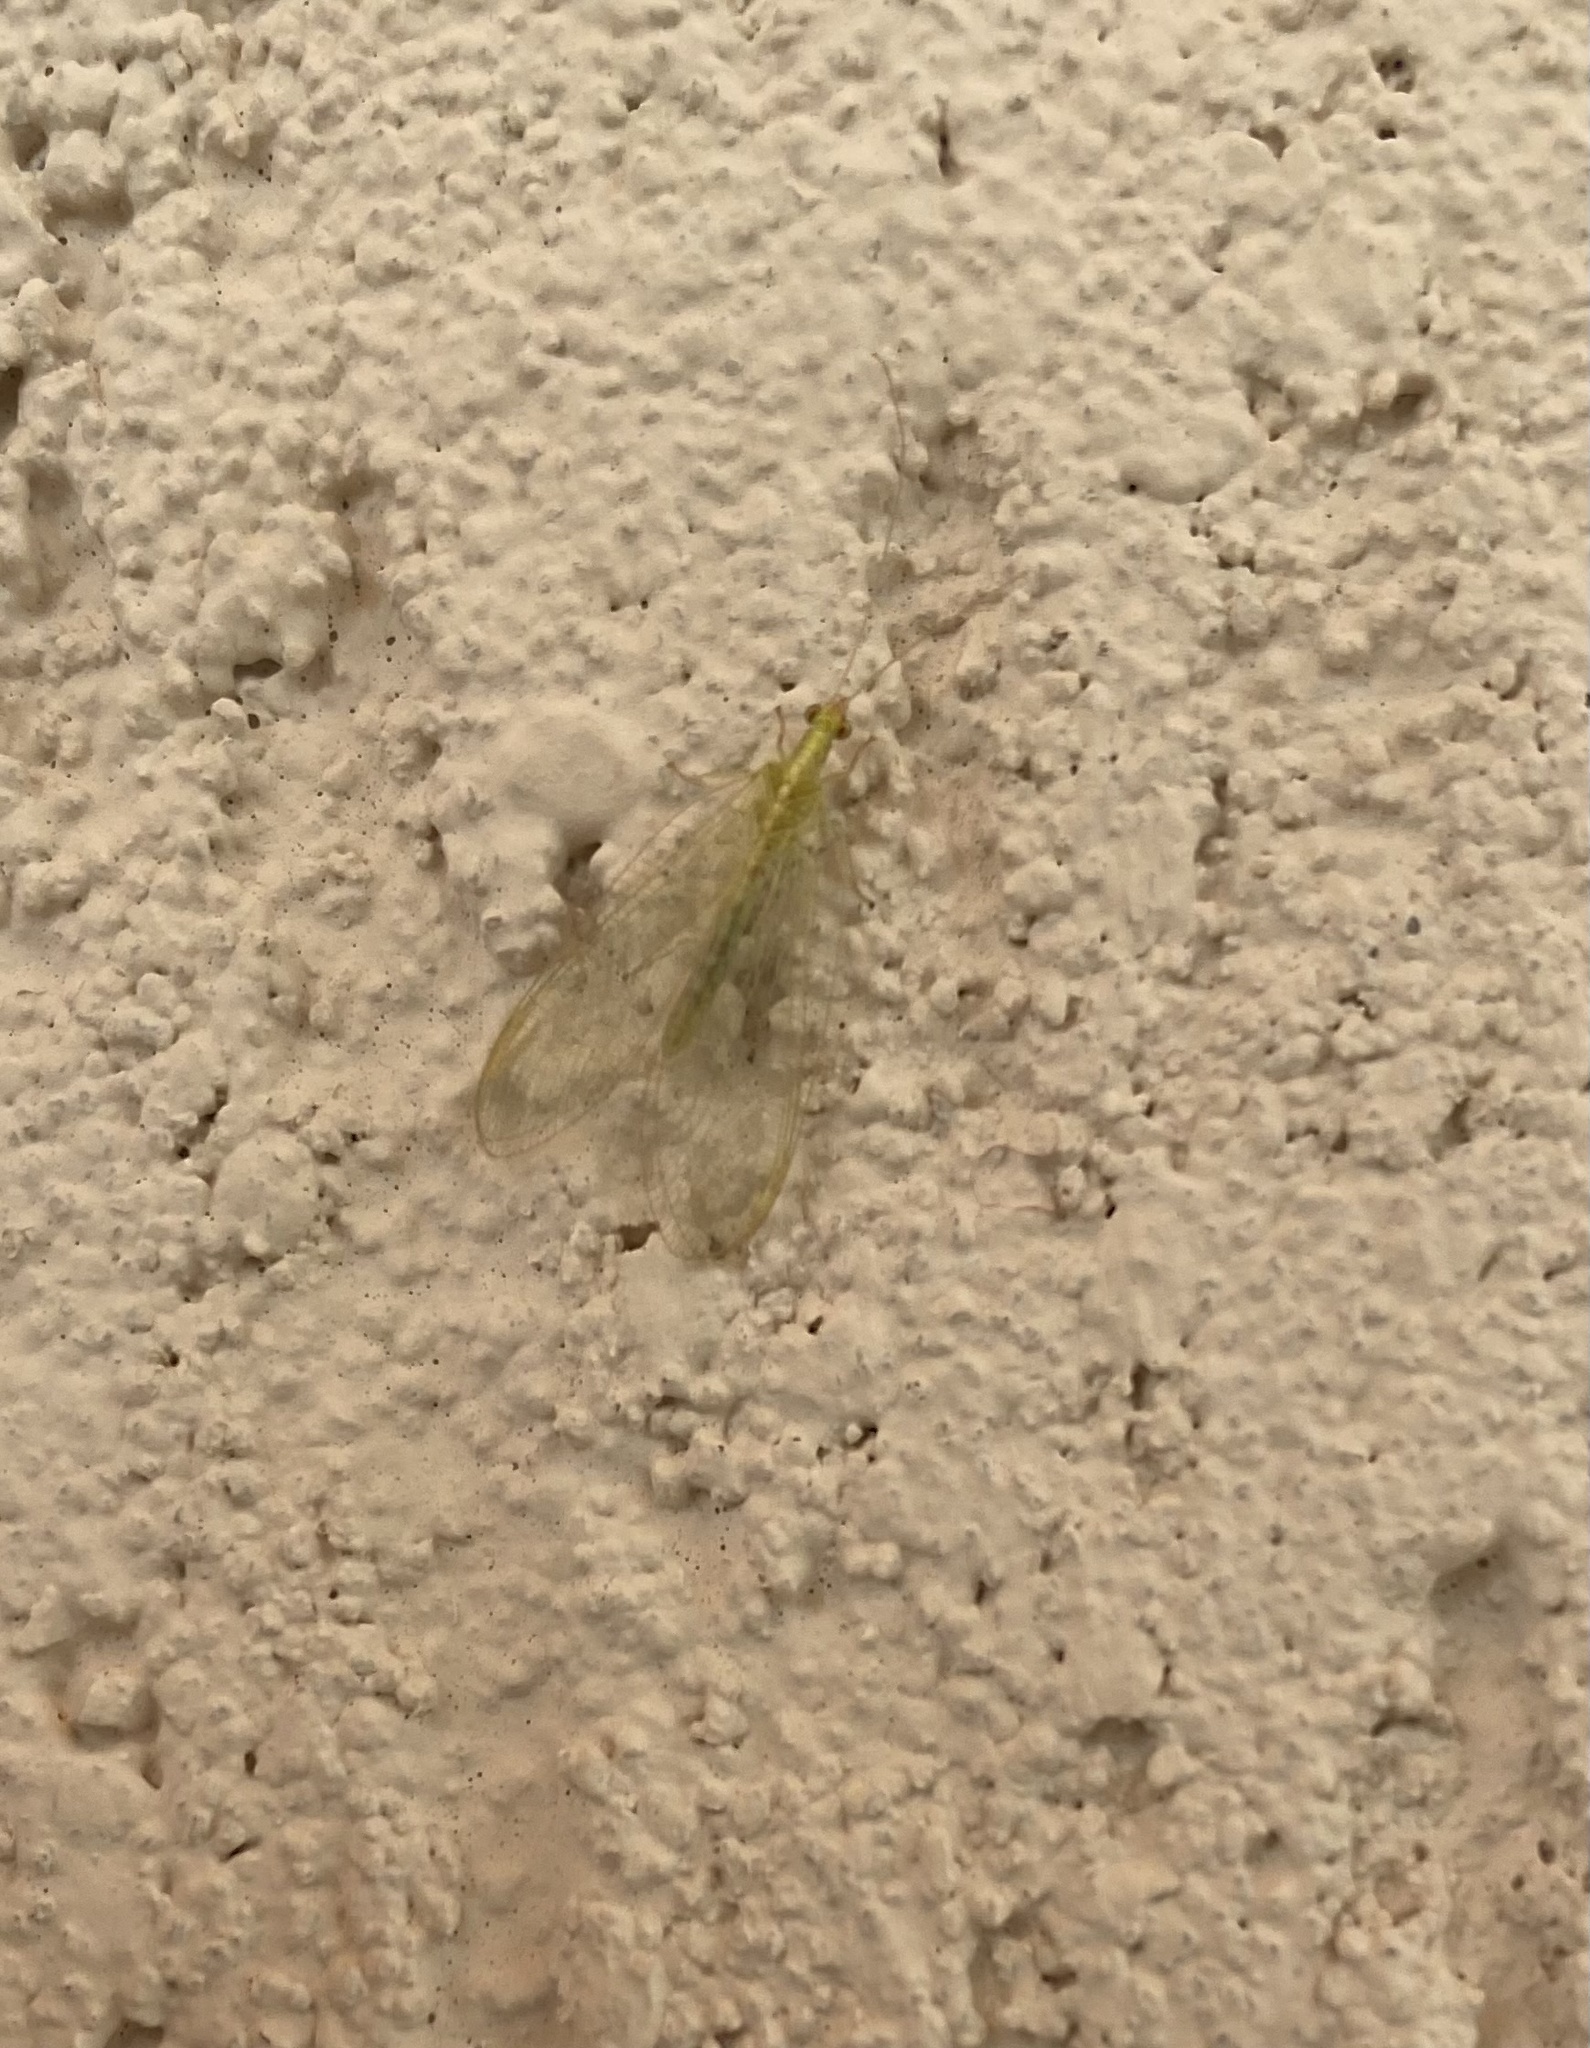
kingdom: Animalia
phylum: Arthropoda
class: Insecta
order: Neuroptera
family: Chrysopidae
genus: Chrysoperla
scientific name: Chrysoperla
